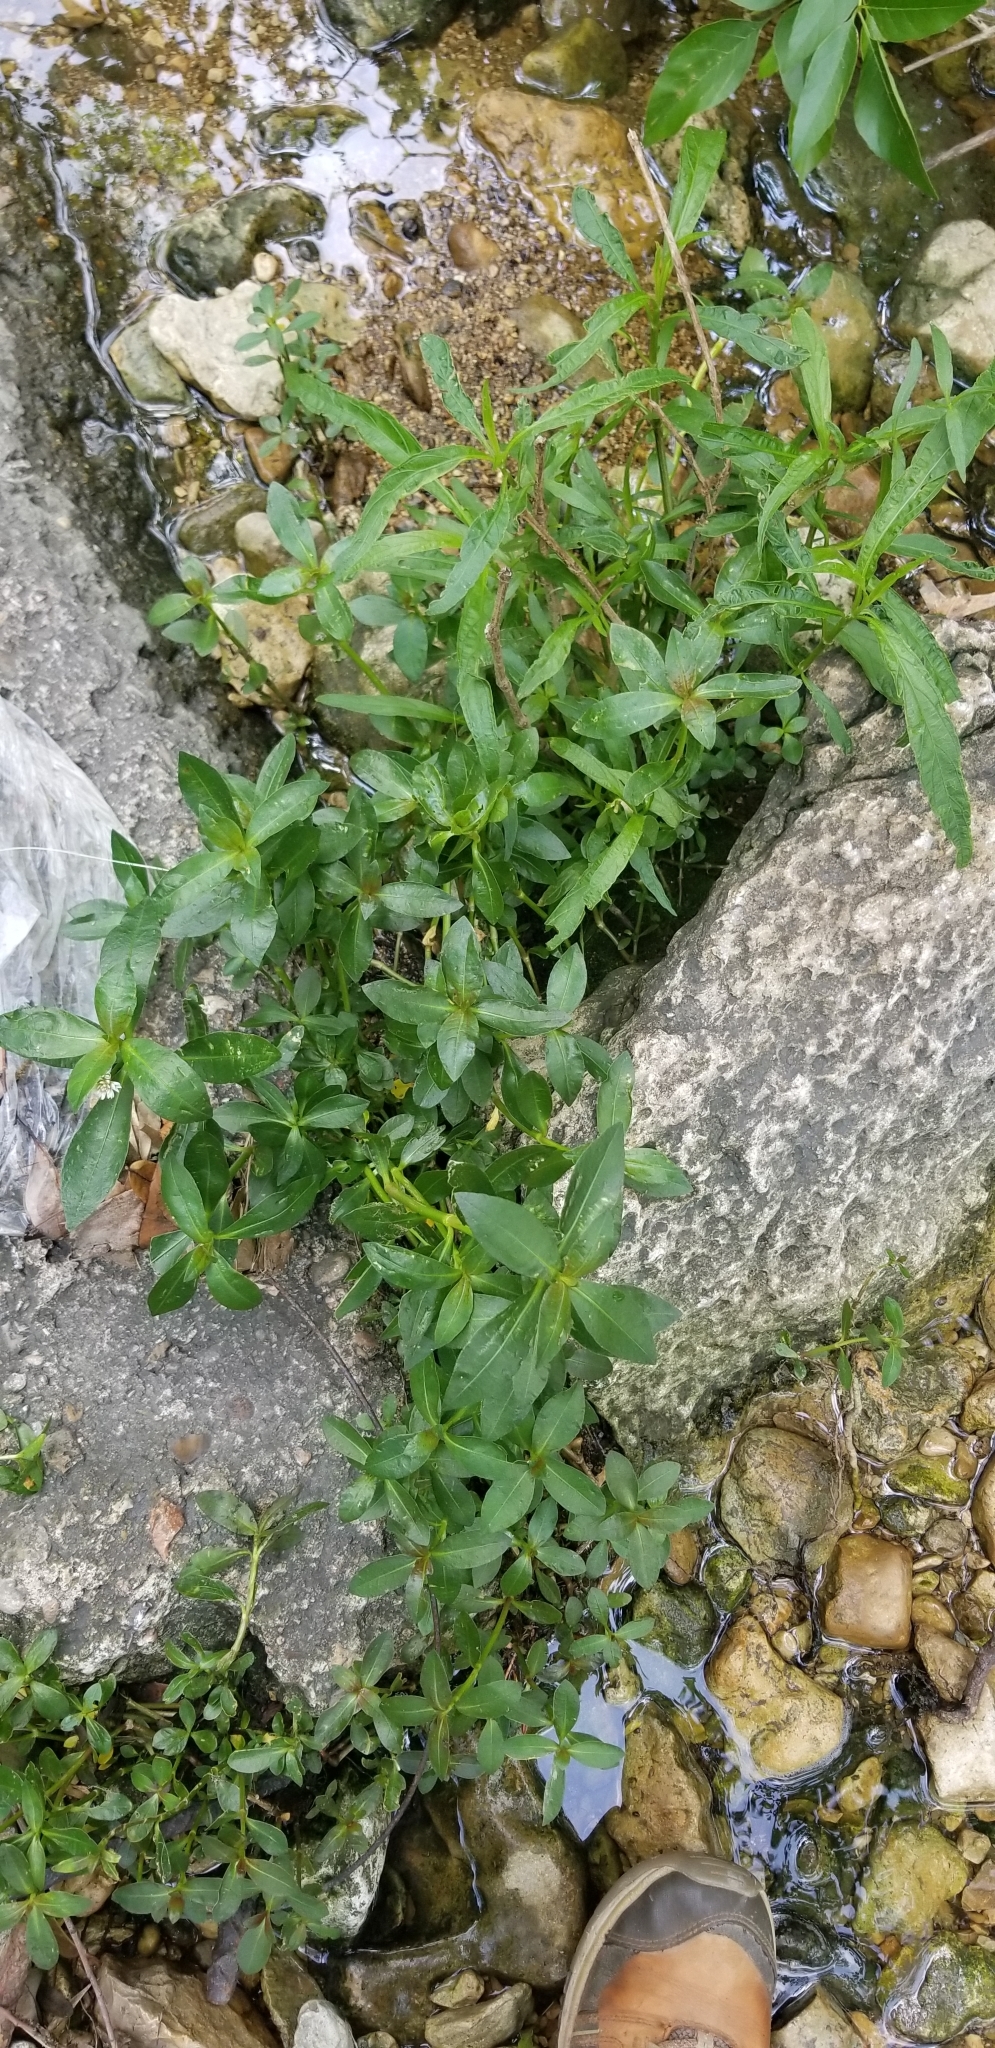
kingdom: Plantae
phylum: Tracheophyta
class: Magnoliopsida
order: Caryophyllales
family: Amaranthaceae
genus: Alternanthera
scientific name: Alternanthera philoxeroides
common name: Alligatorweed
